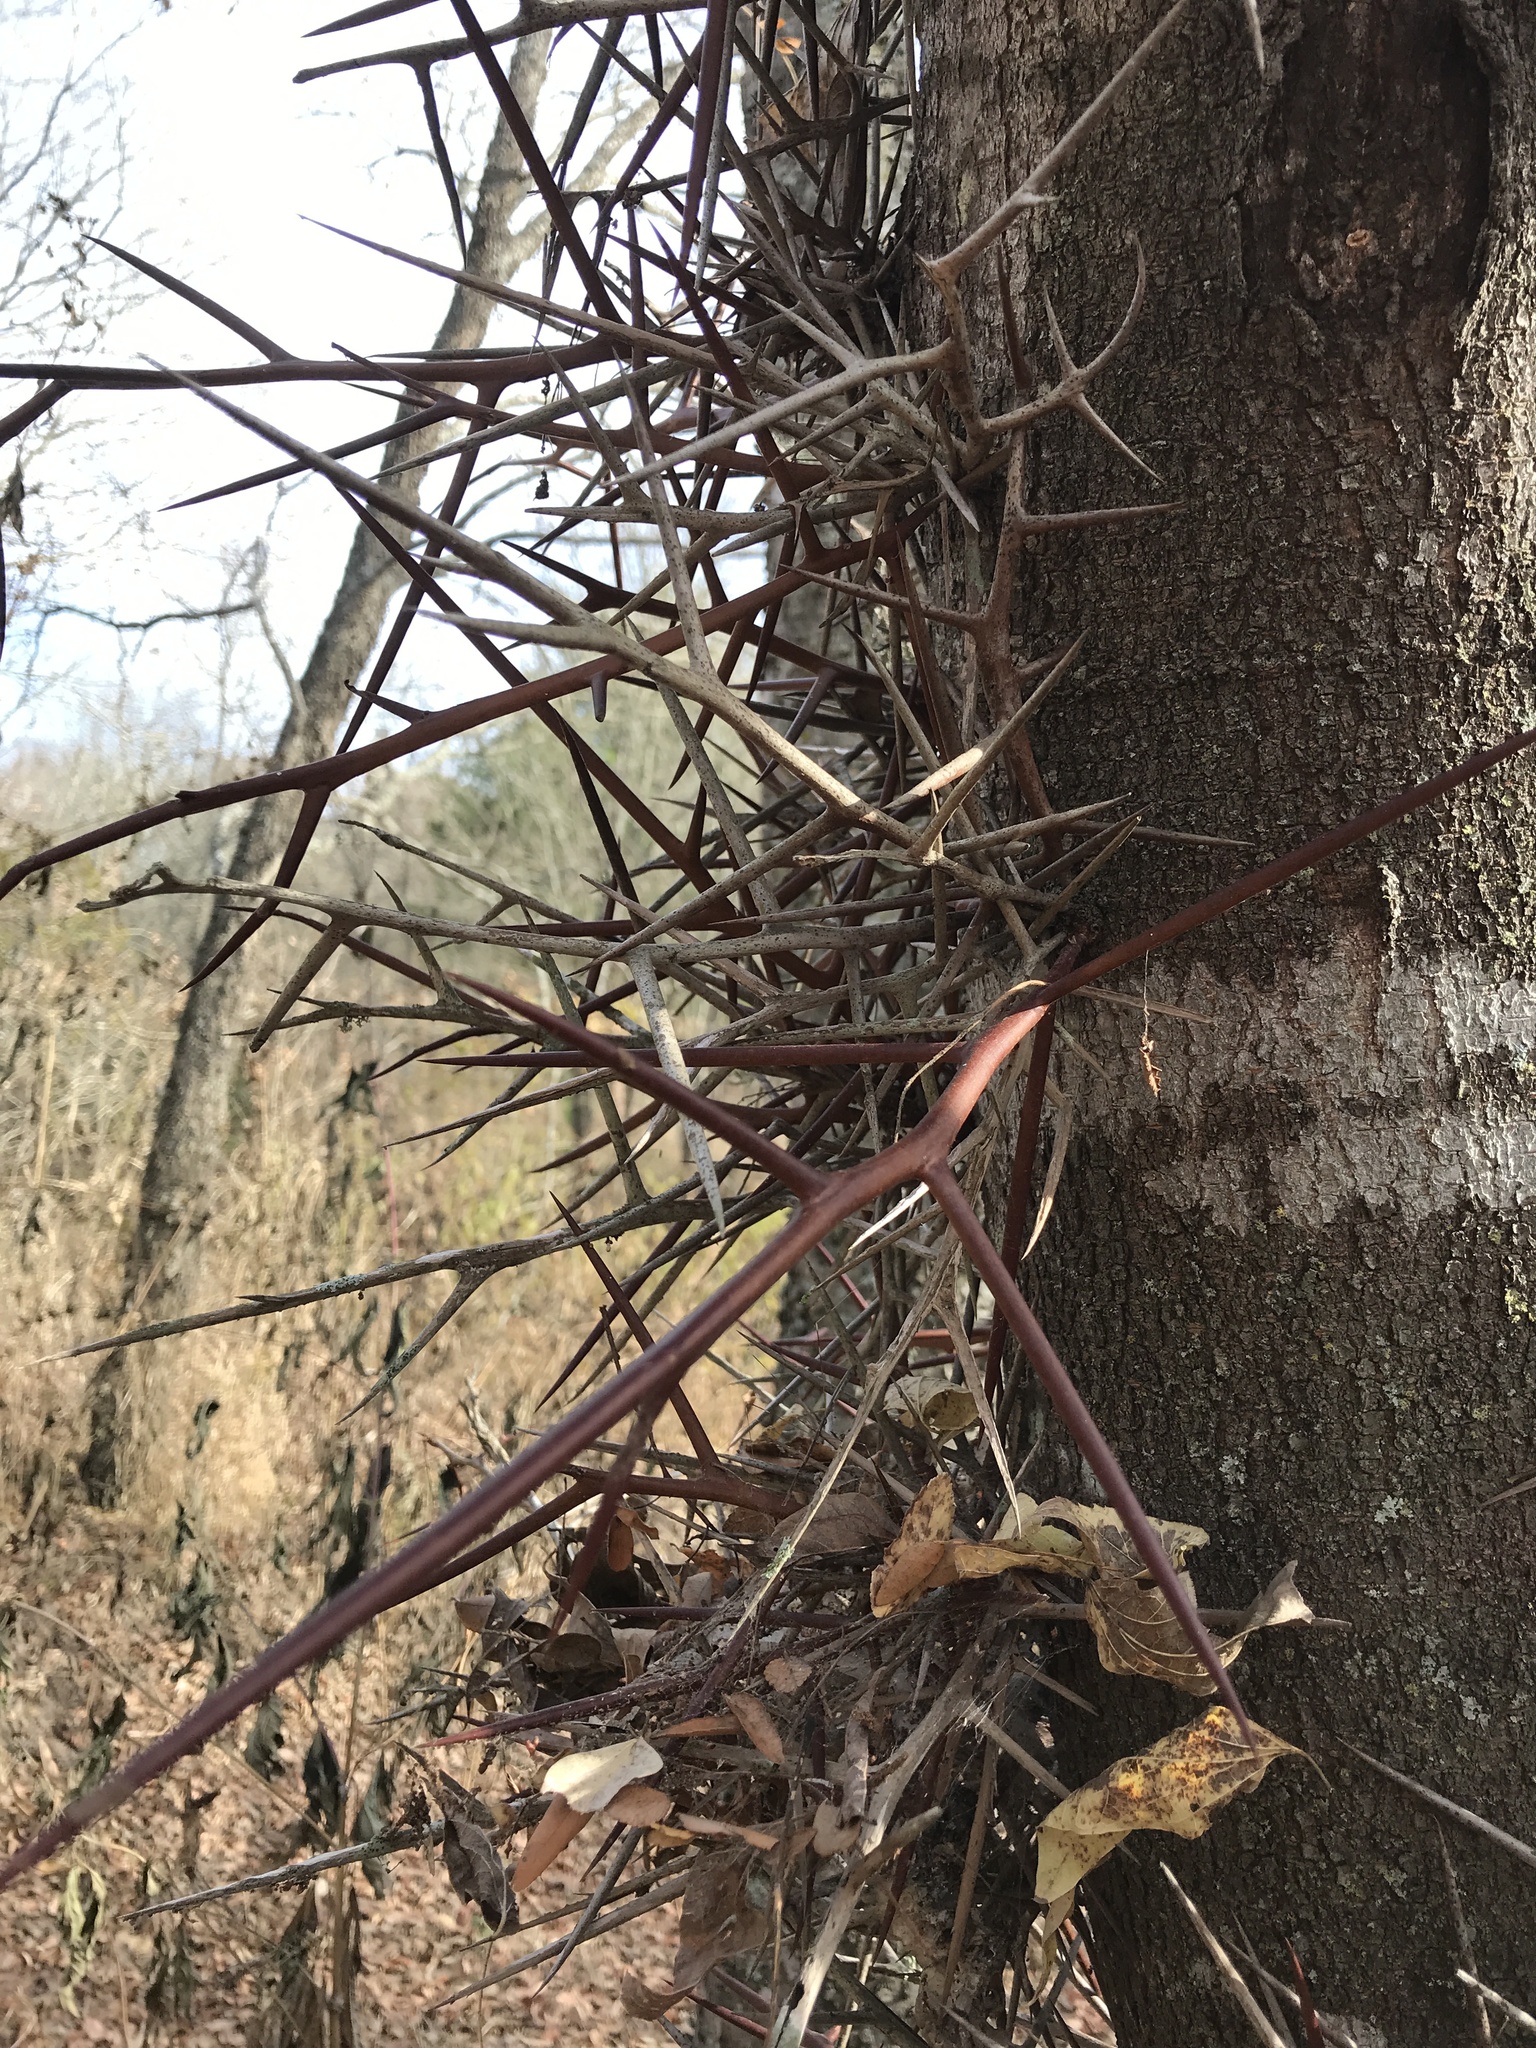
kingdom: Plantae
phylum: Tracheophyta
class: Magnoliopsida
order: Fabales
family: Fabaceae
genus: Gleditsia
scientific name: Gleditsia triacanthos
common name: Common honeylocust
